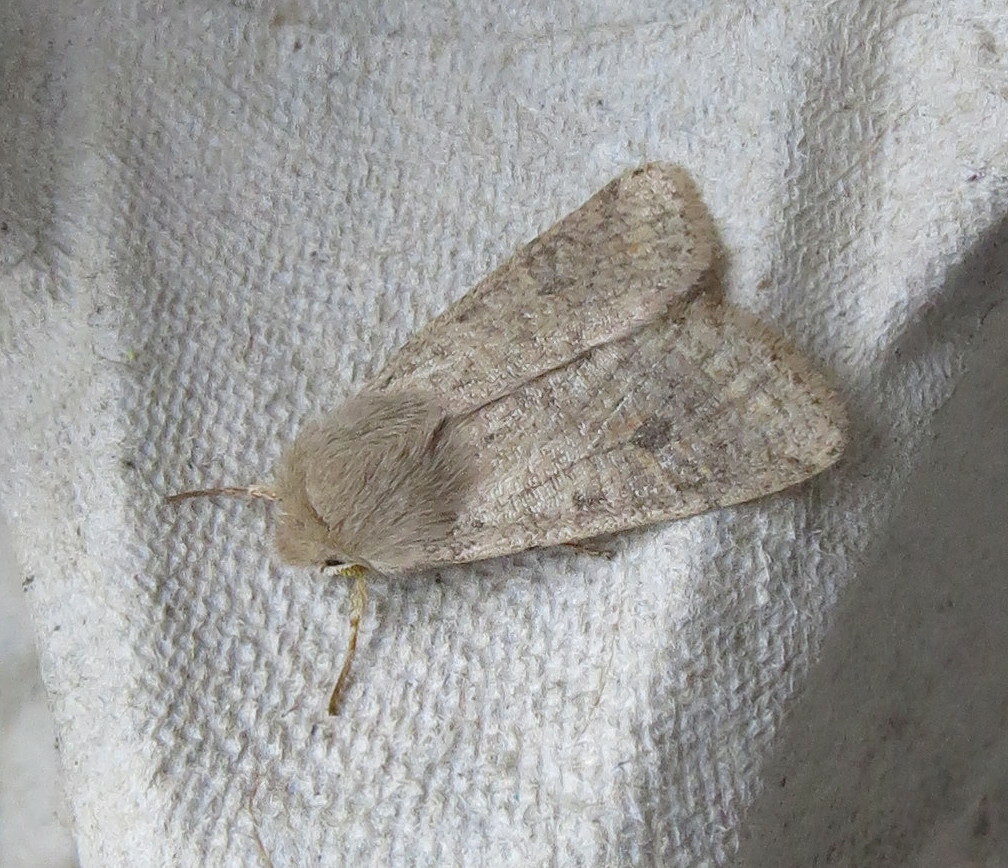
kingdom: Animalia
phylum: Arthropoda
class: Insecta
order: Lepidoptera
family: Noctuidae
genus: Orthosia
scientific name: Orthosia cruda
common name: Small quaker
